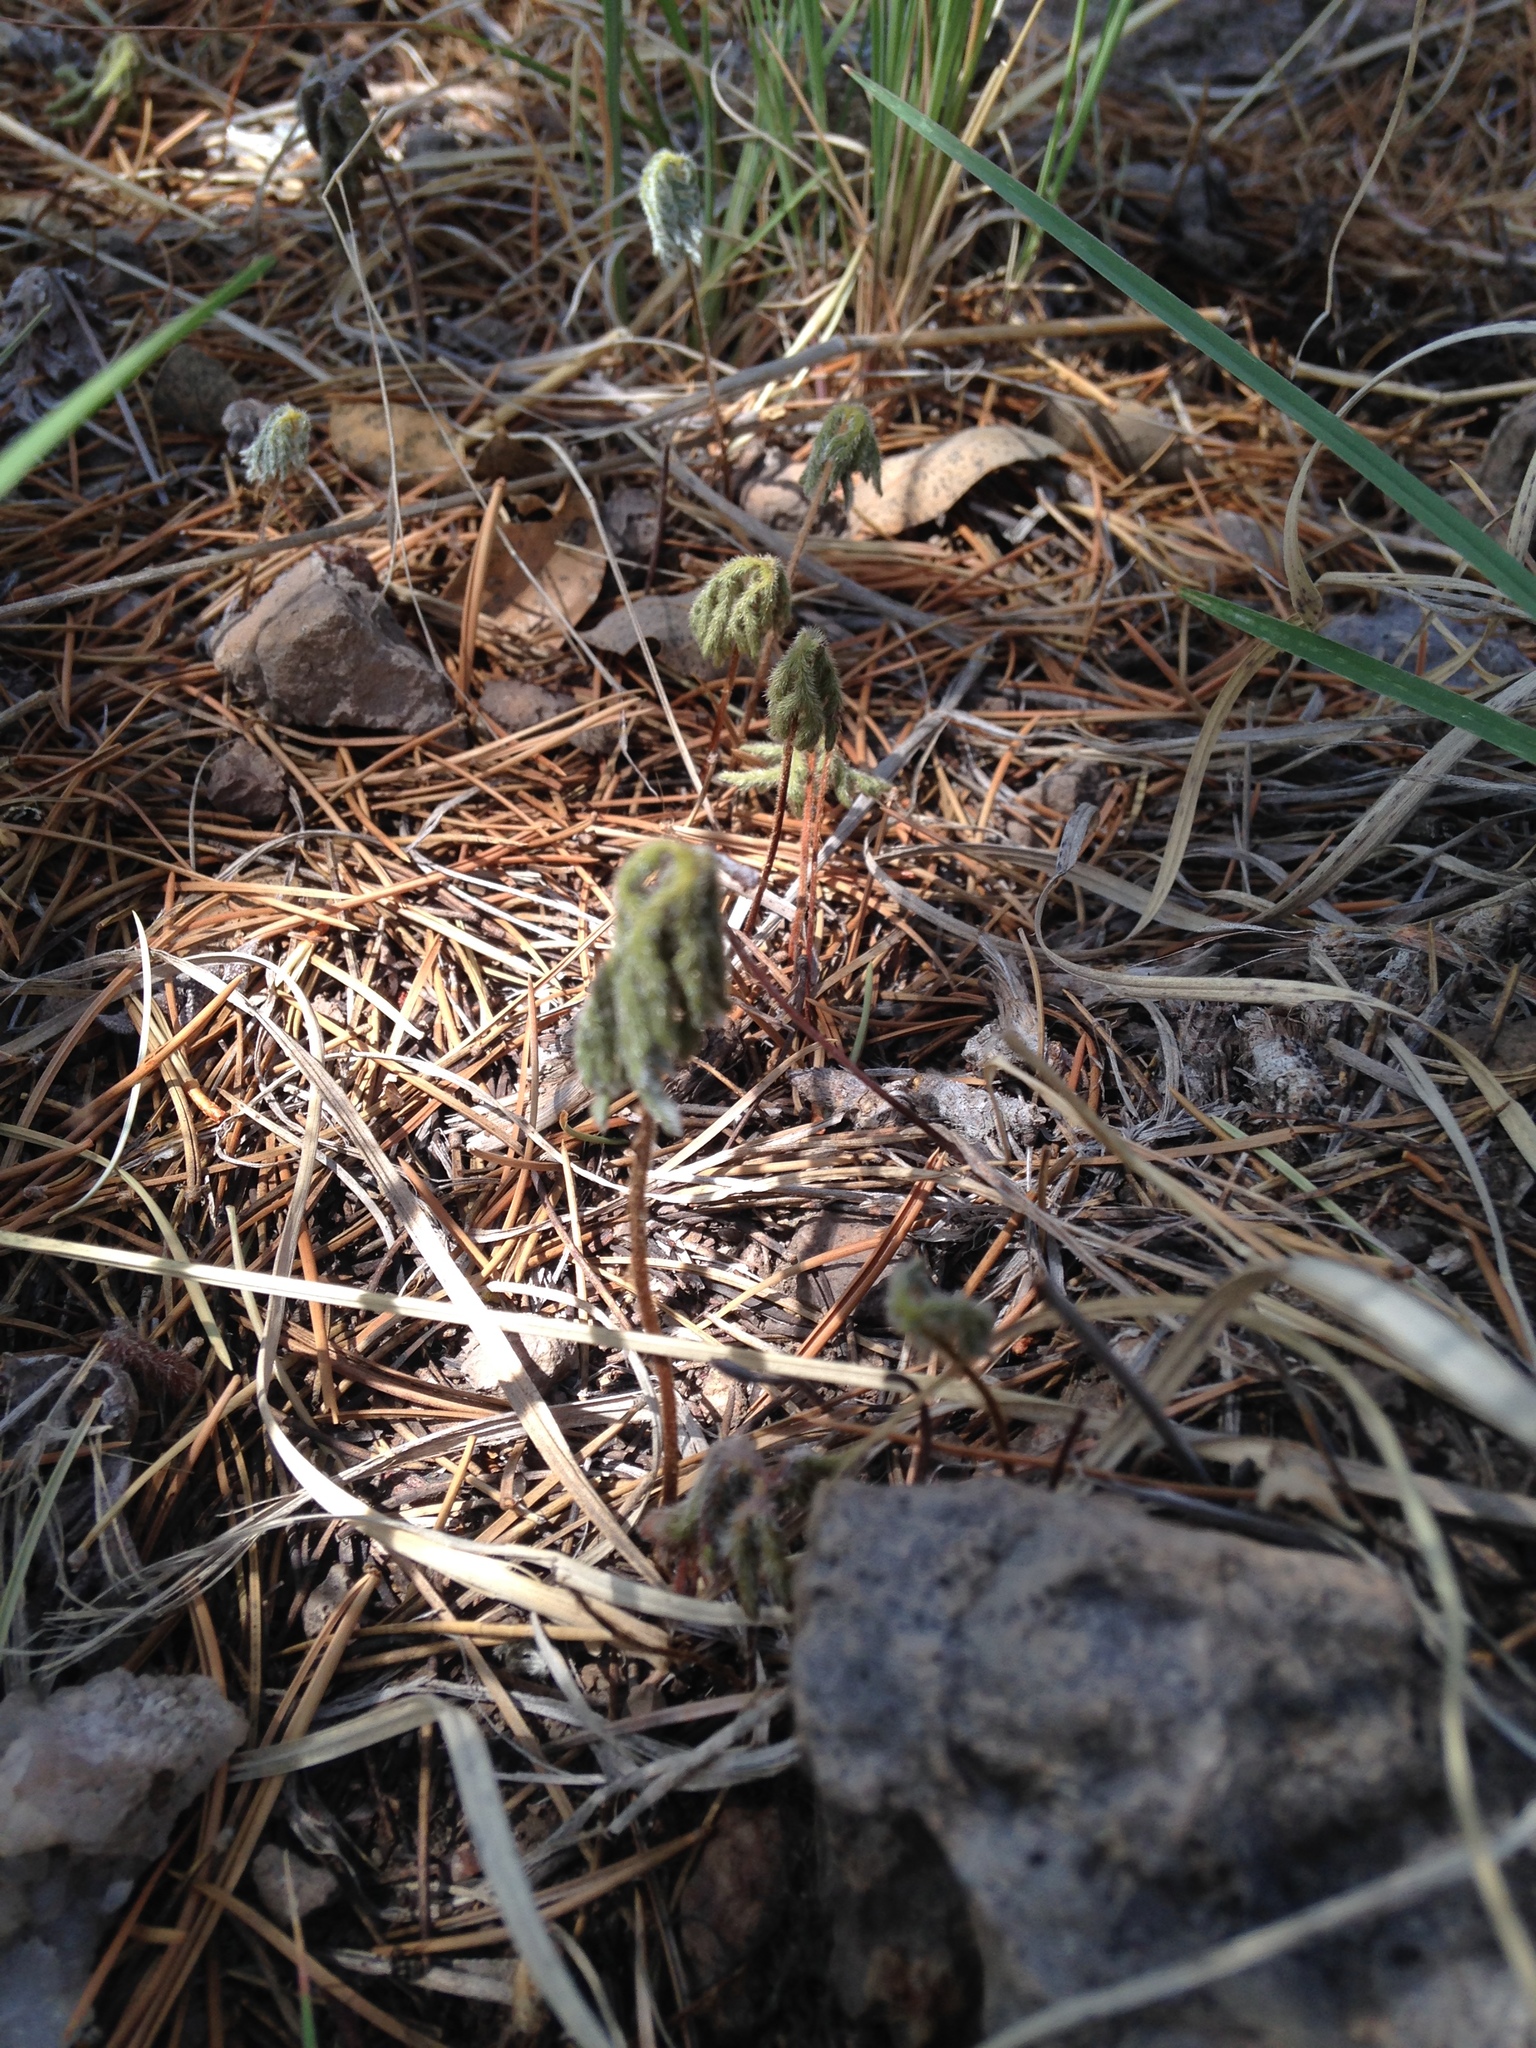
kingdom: Plantae
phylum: Tracheophyta
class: Polypodiopsida
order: Polypodiales
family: Pteridaceae
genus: Bommeria
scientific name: Bommeria hispida
